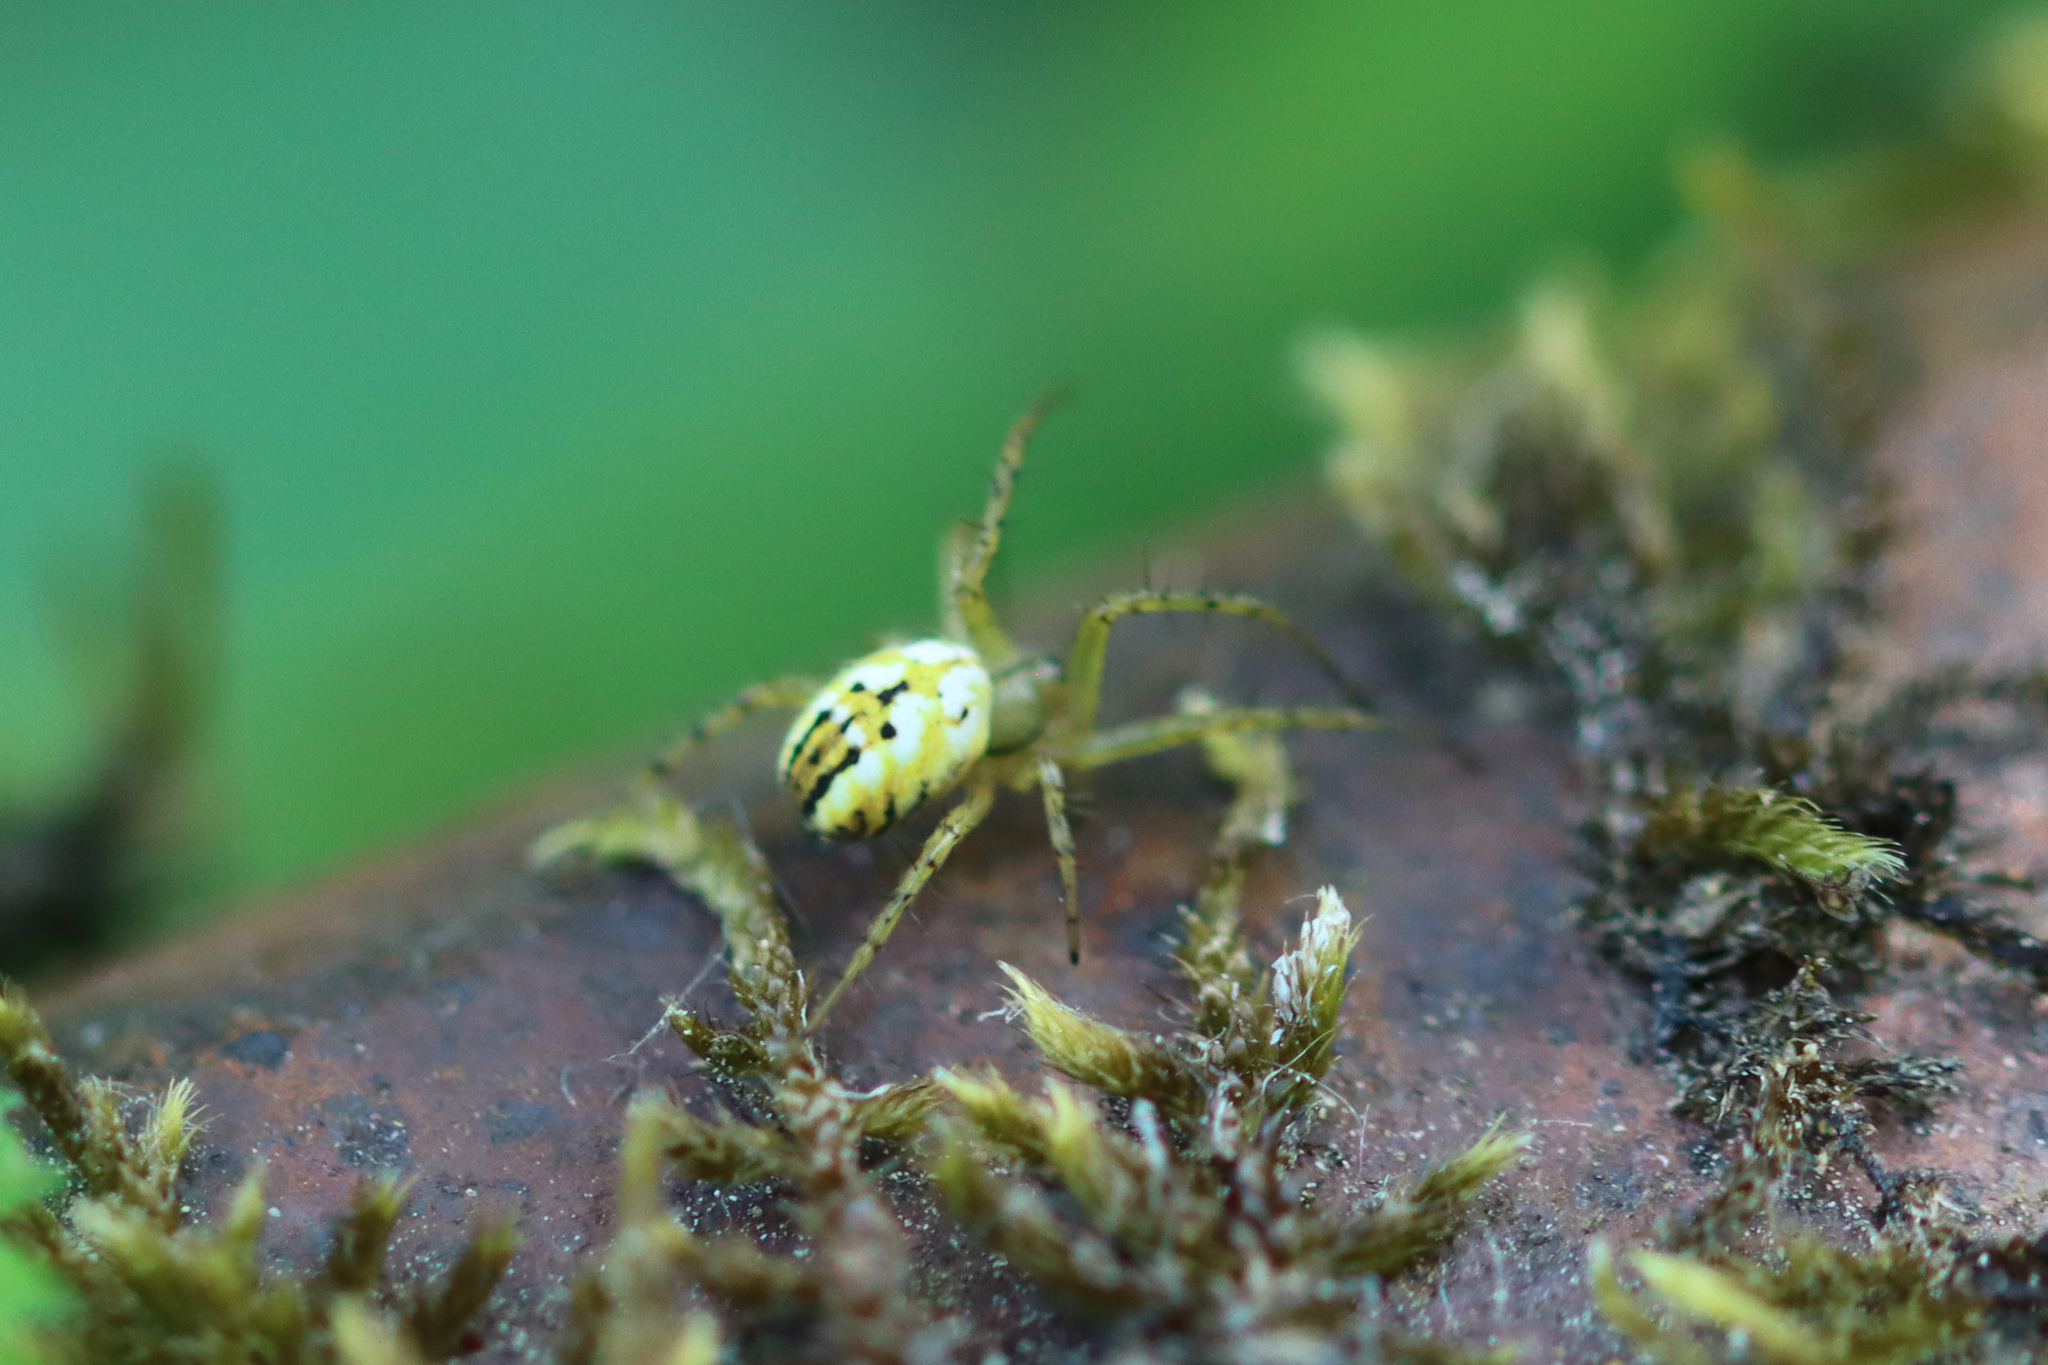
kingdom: Animalia
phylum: Arthropoda
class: Arachnida
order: Araneae
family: Araneidae
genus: Mangora
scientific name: Mangora acalypha
